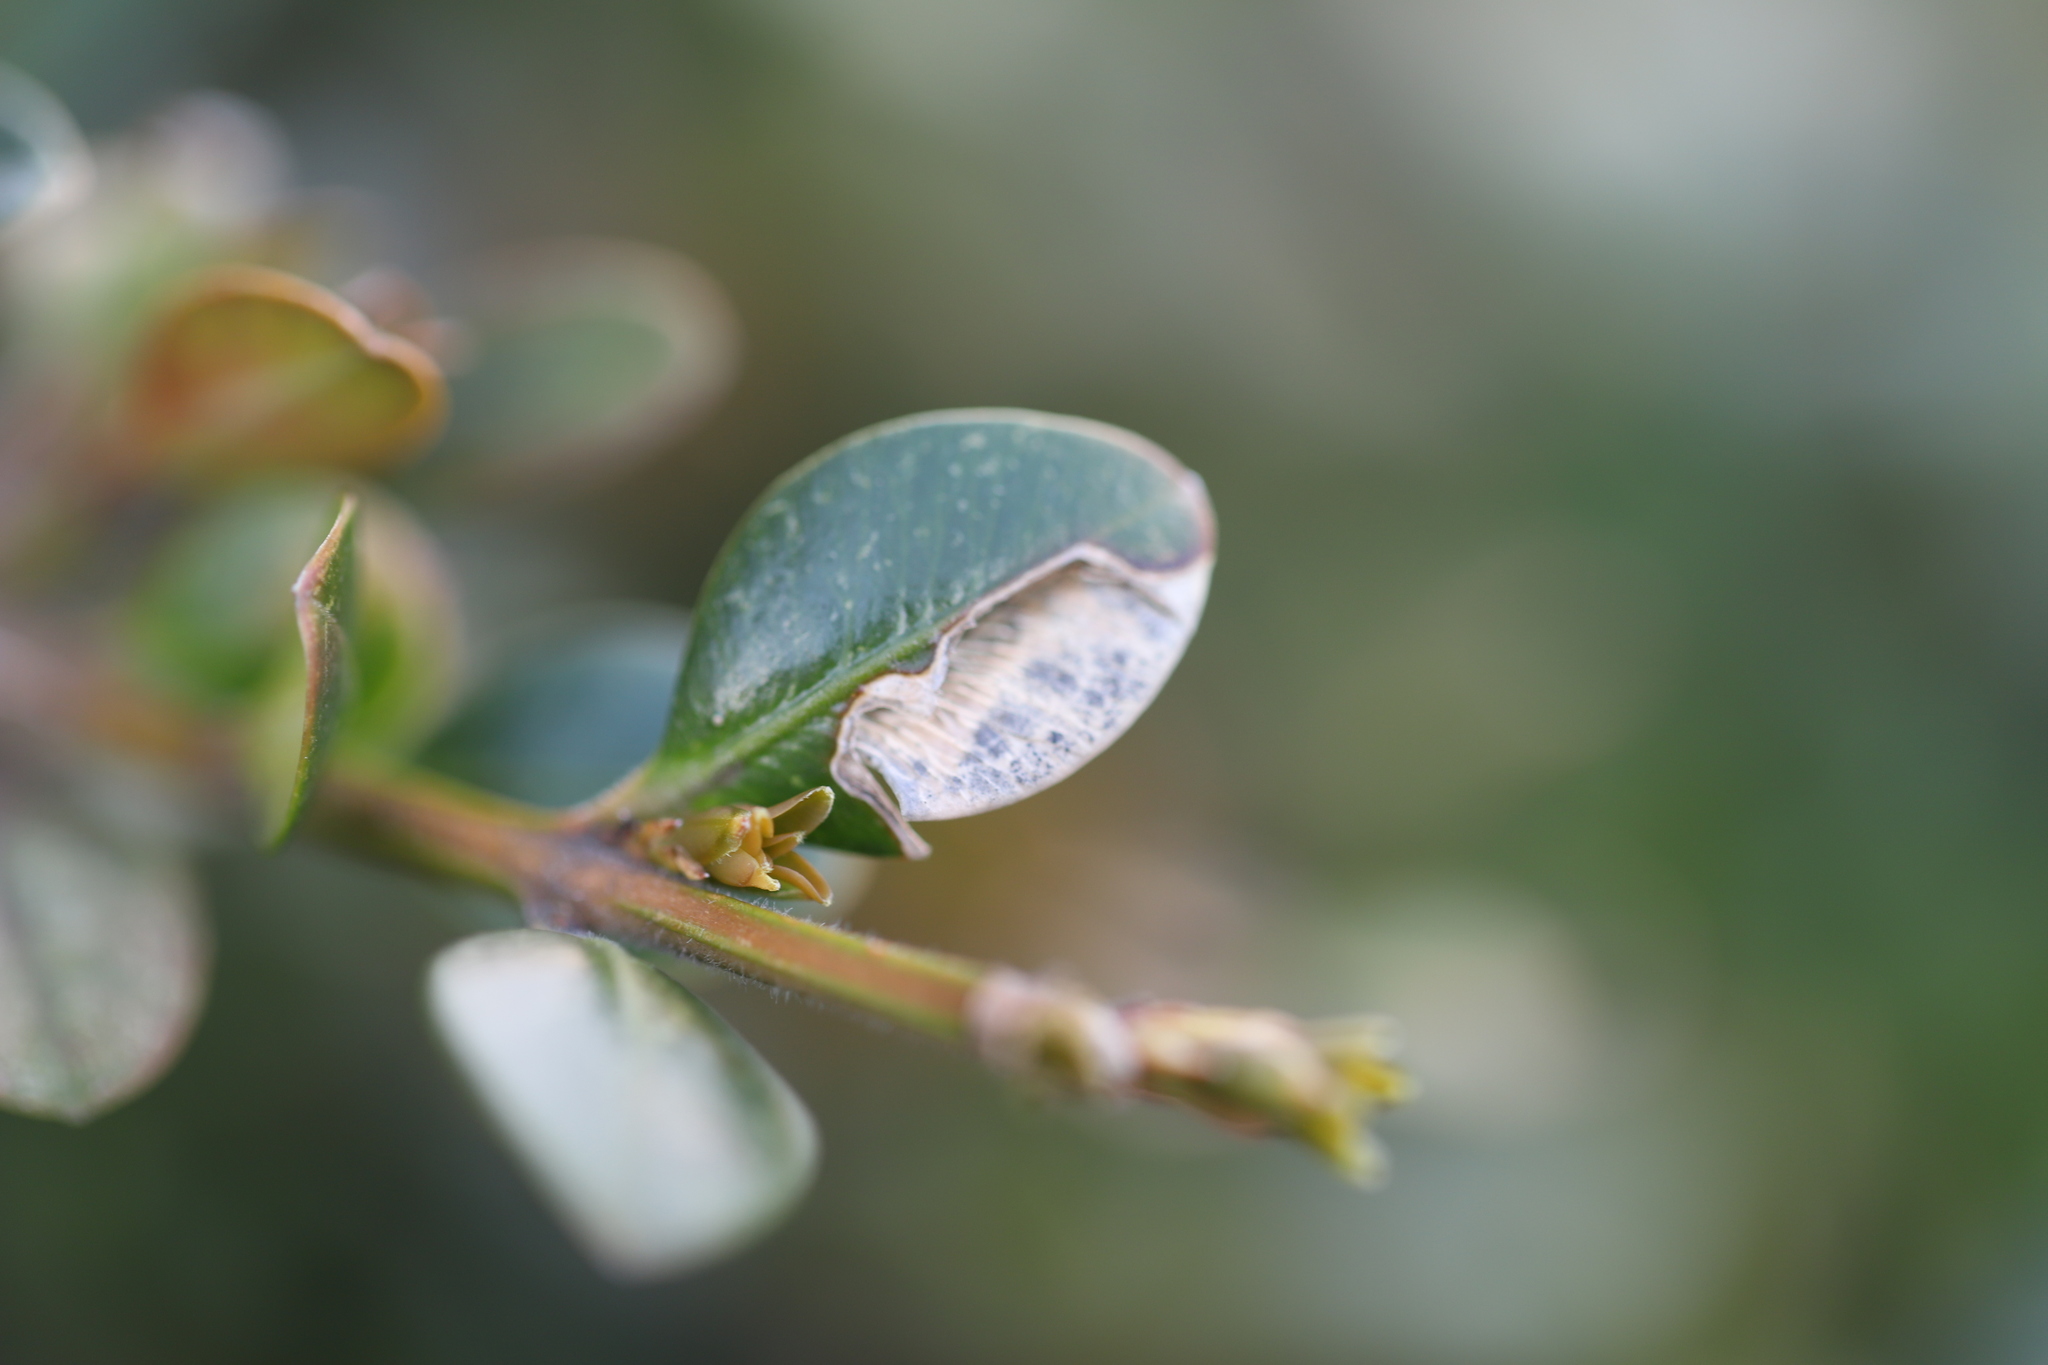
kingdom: Animalia
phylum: Arthropoda
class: Insecta
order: Diptera
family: Cecidomyiidae
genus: Monarthropalpus
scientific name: Monarthropalpus flavus
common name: Boxwood leafminer
